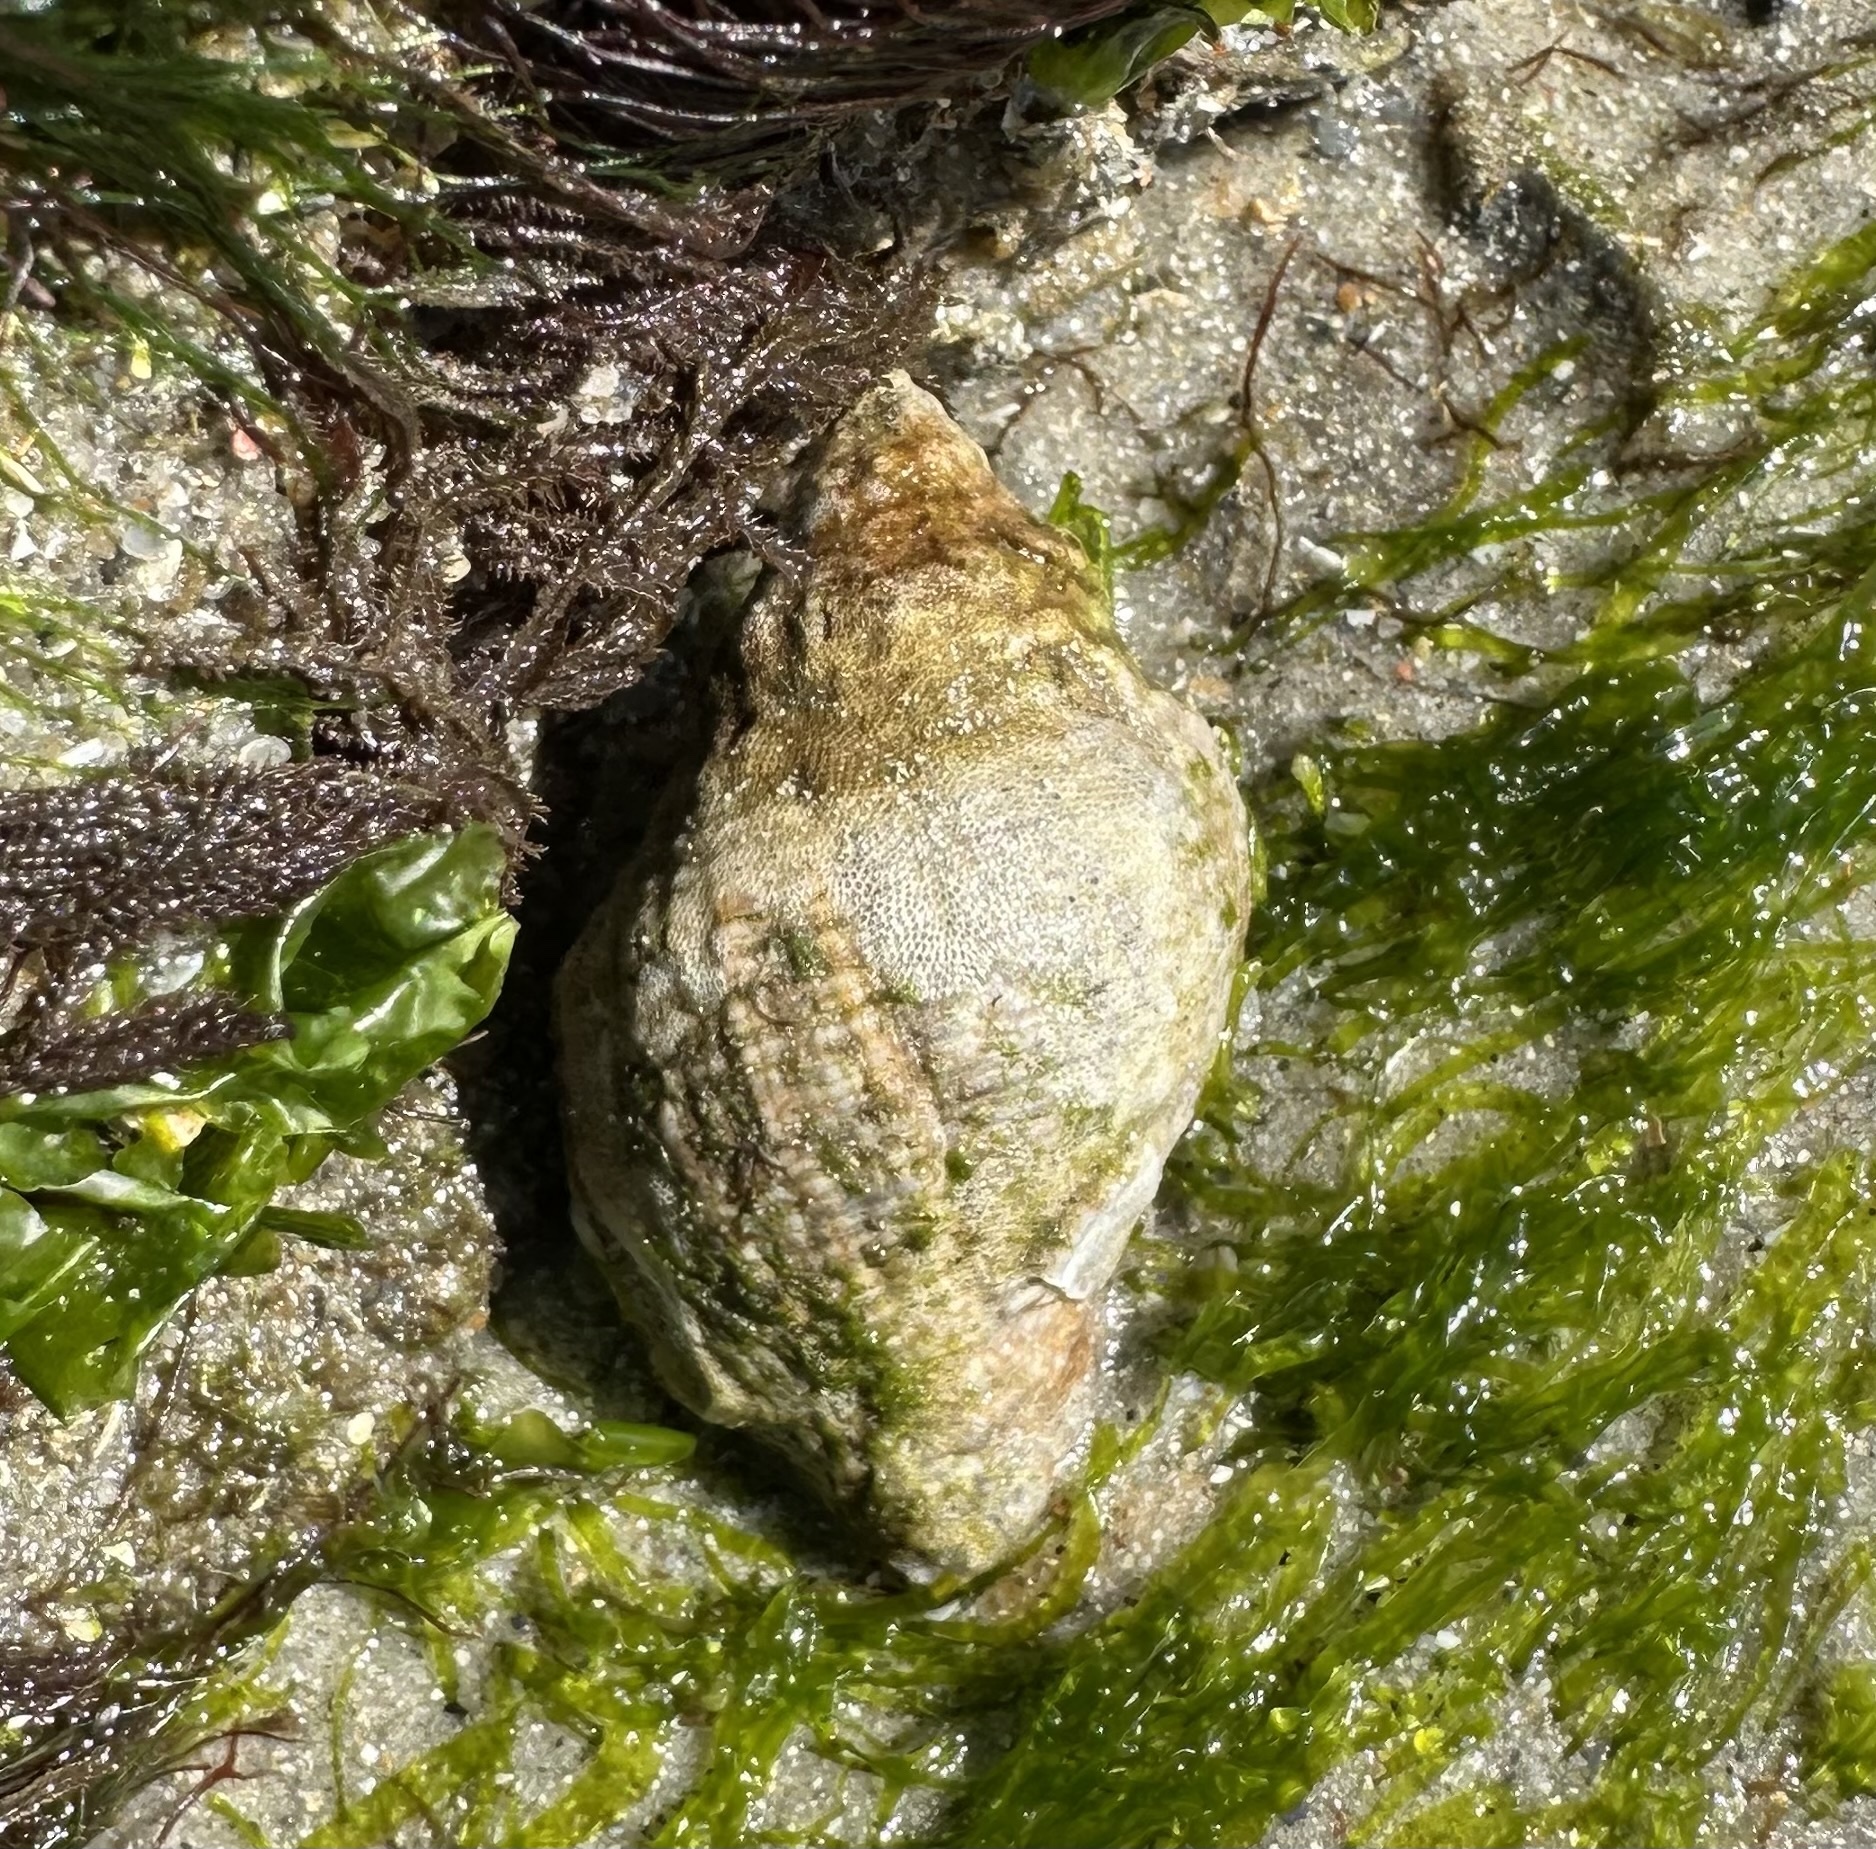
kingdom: Animalia
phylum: Mollusca
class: Gastropoda
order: Neogastropoda
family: Muricidae
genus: Stramonita
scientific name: Stramonita floridana
